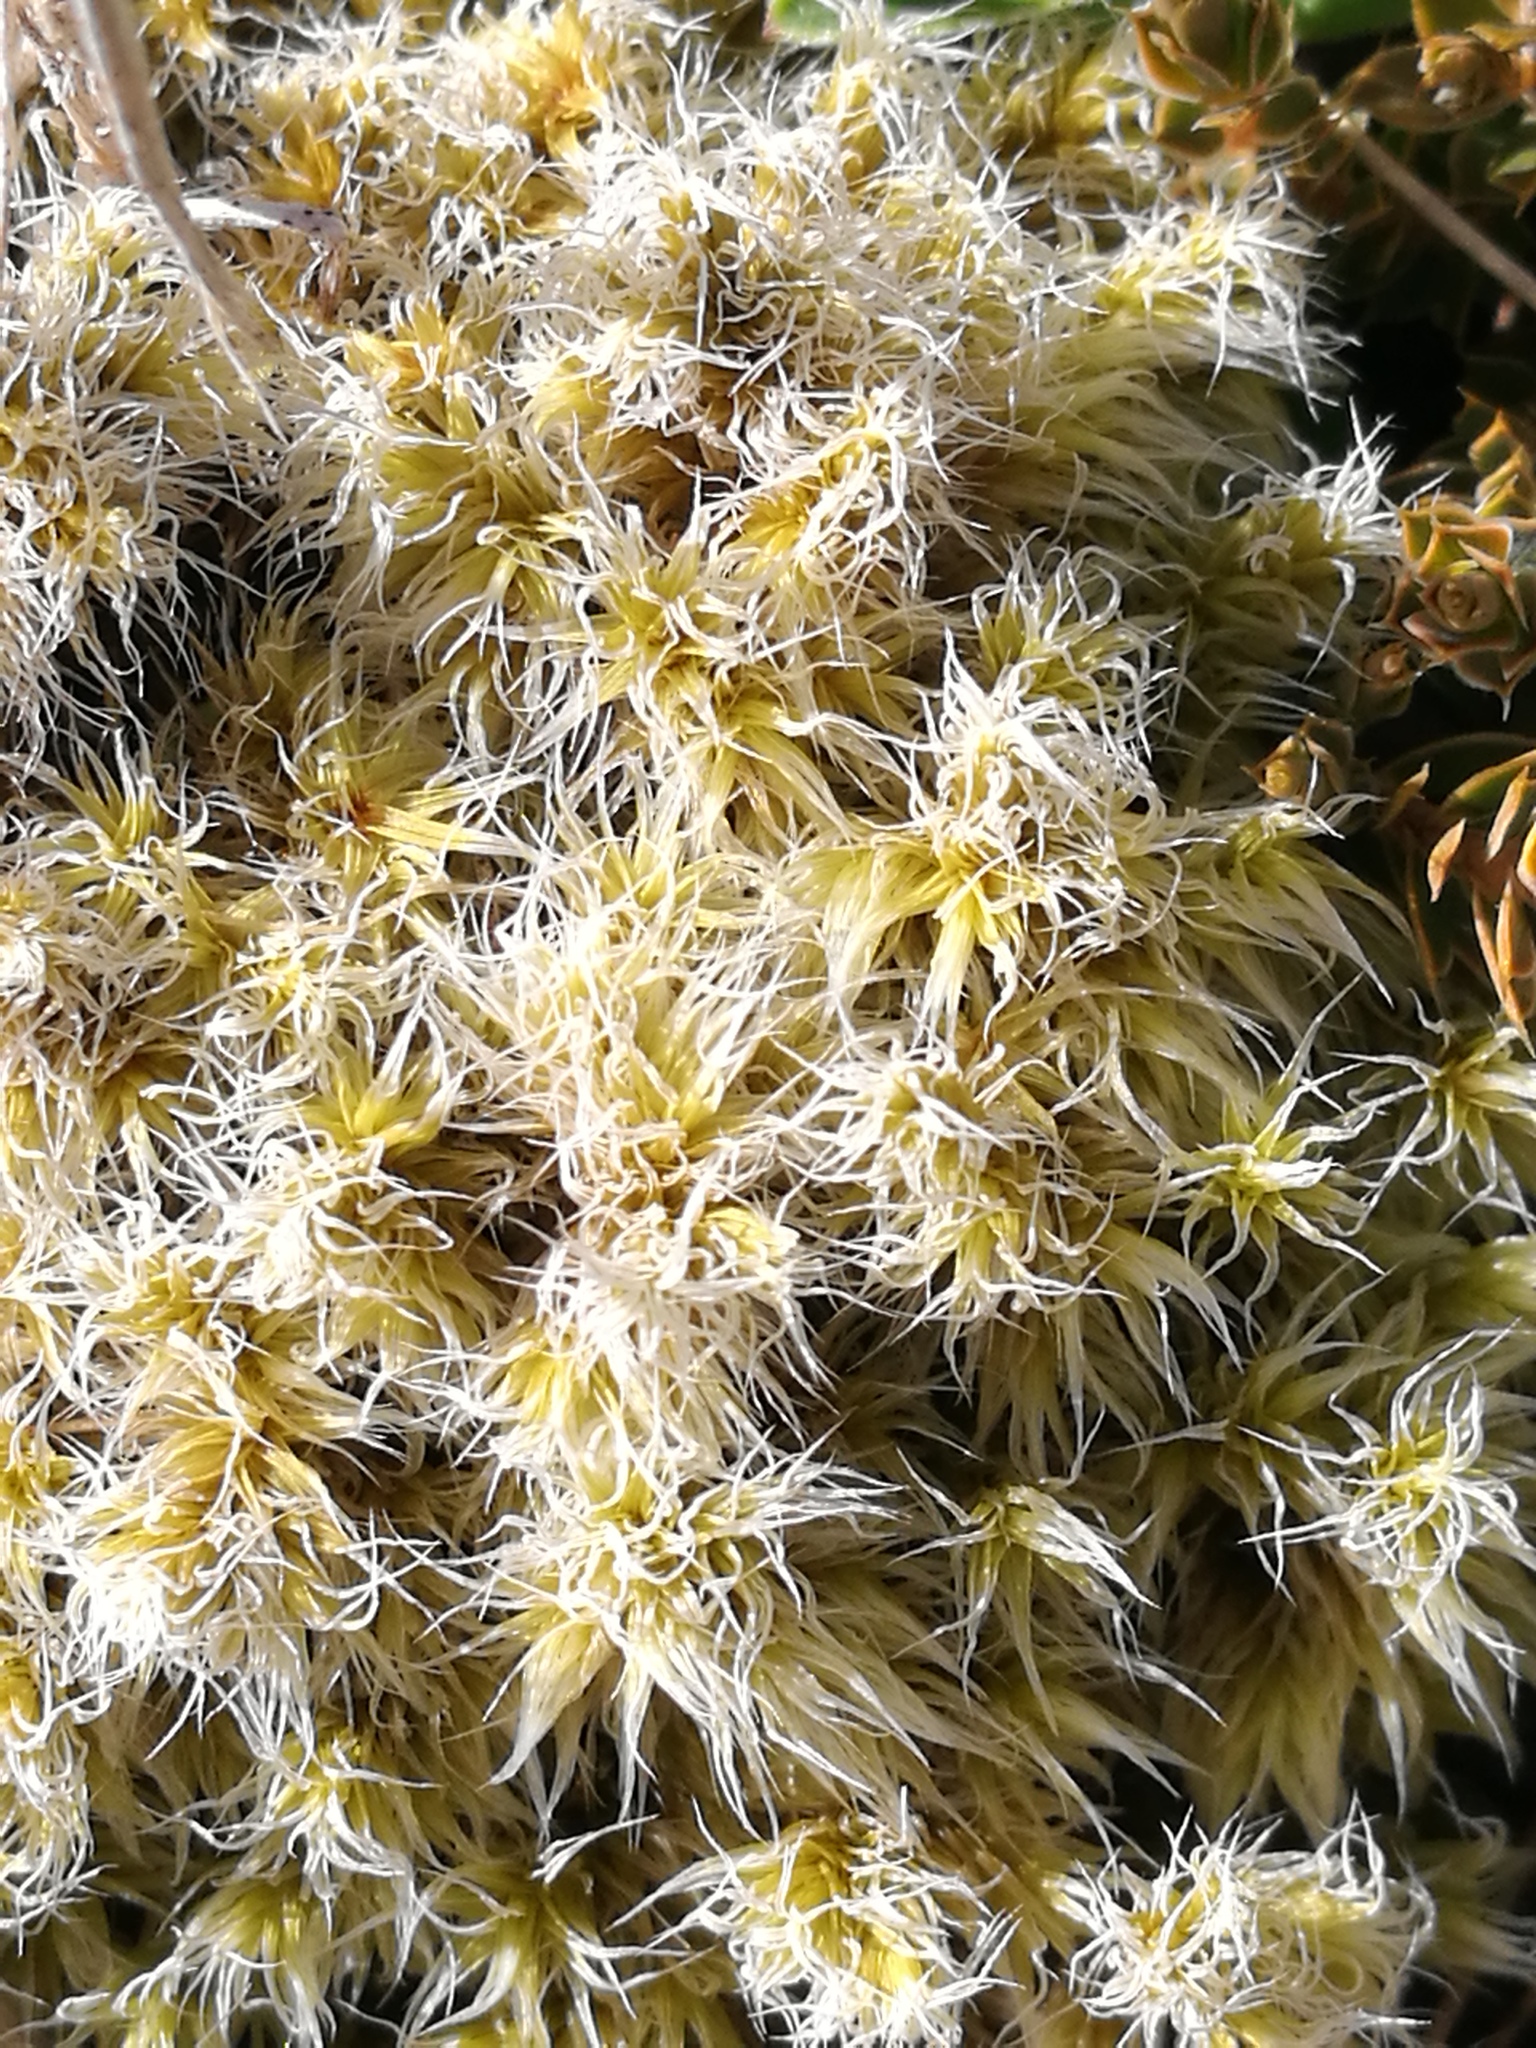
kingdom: Plantae
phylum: Bryophyta
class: Bryopsida
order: Grimmiales
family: Grimmiaceae
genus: Racomitrium
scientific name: Racomitrium lanuginosum
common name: Hoary rock moss
